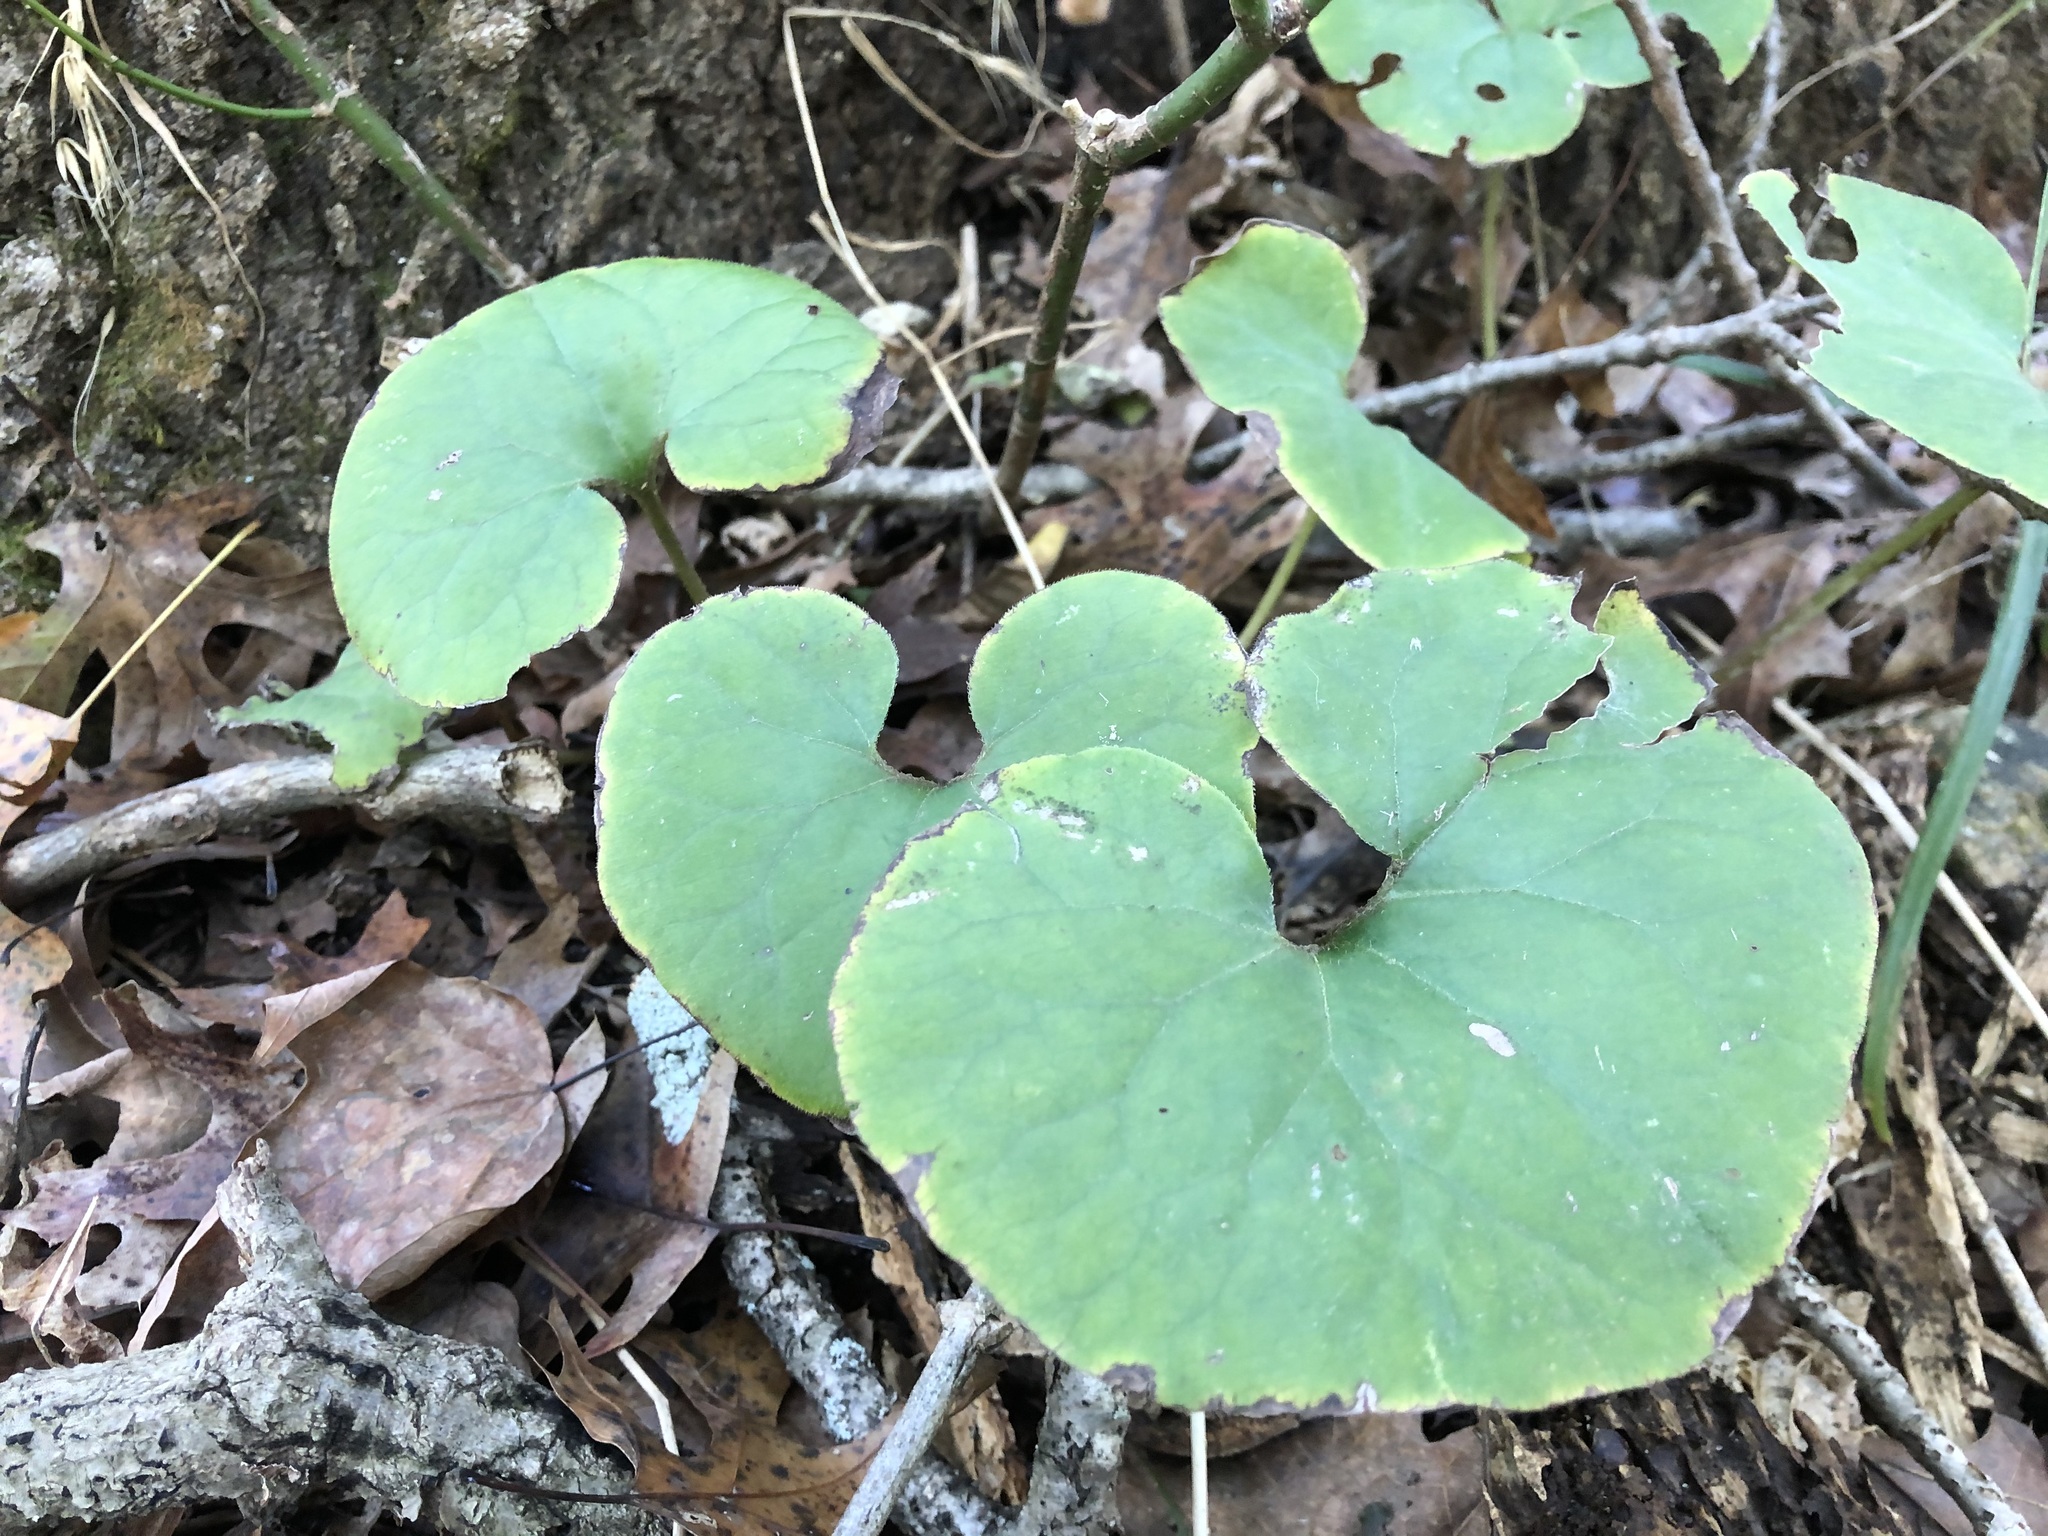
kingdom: Plantae
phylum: Tracheophyta
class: Magnoliopsida
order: Piperales
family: Aristolochiaceae
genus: Asarum
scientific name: Asarum canadense
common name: Wild ginger
